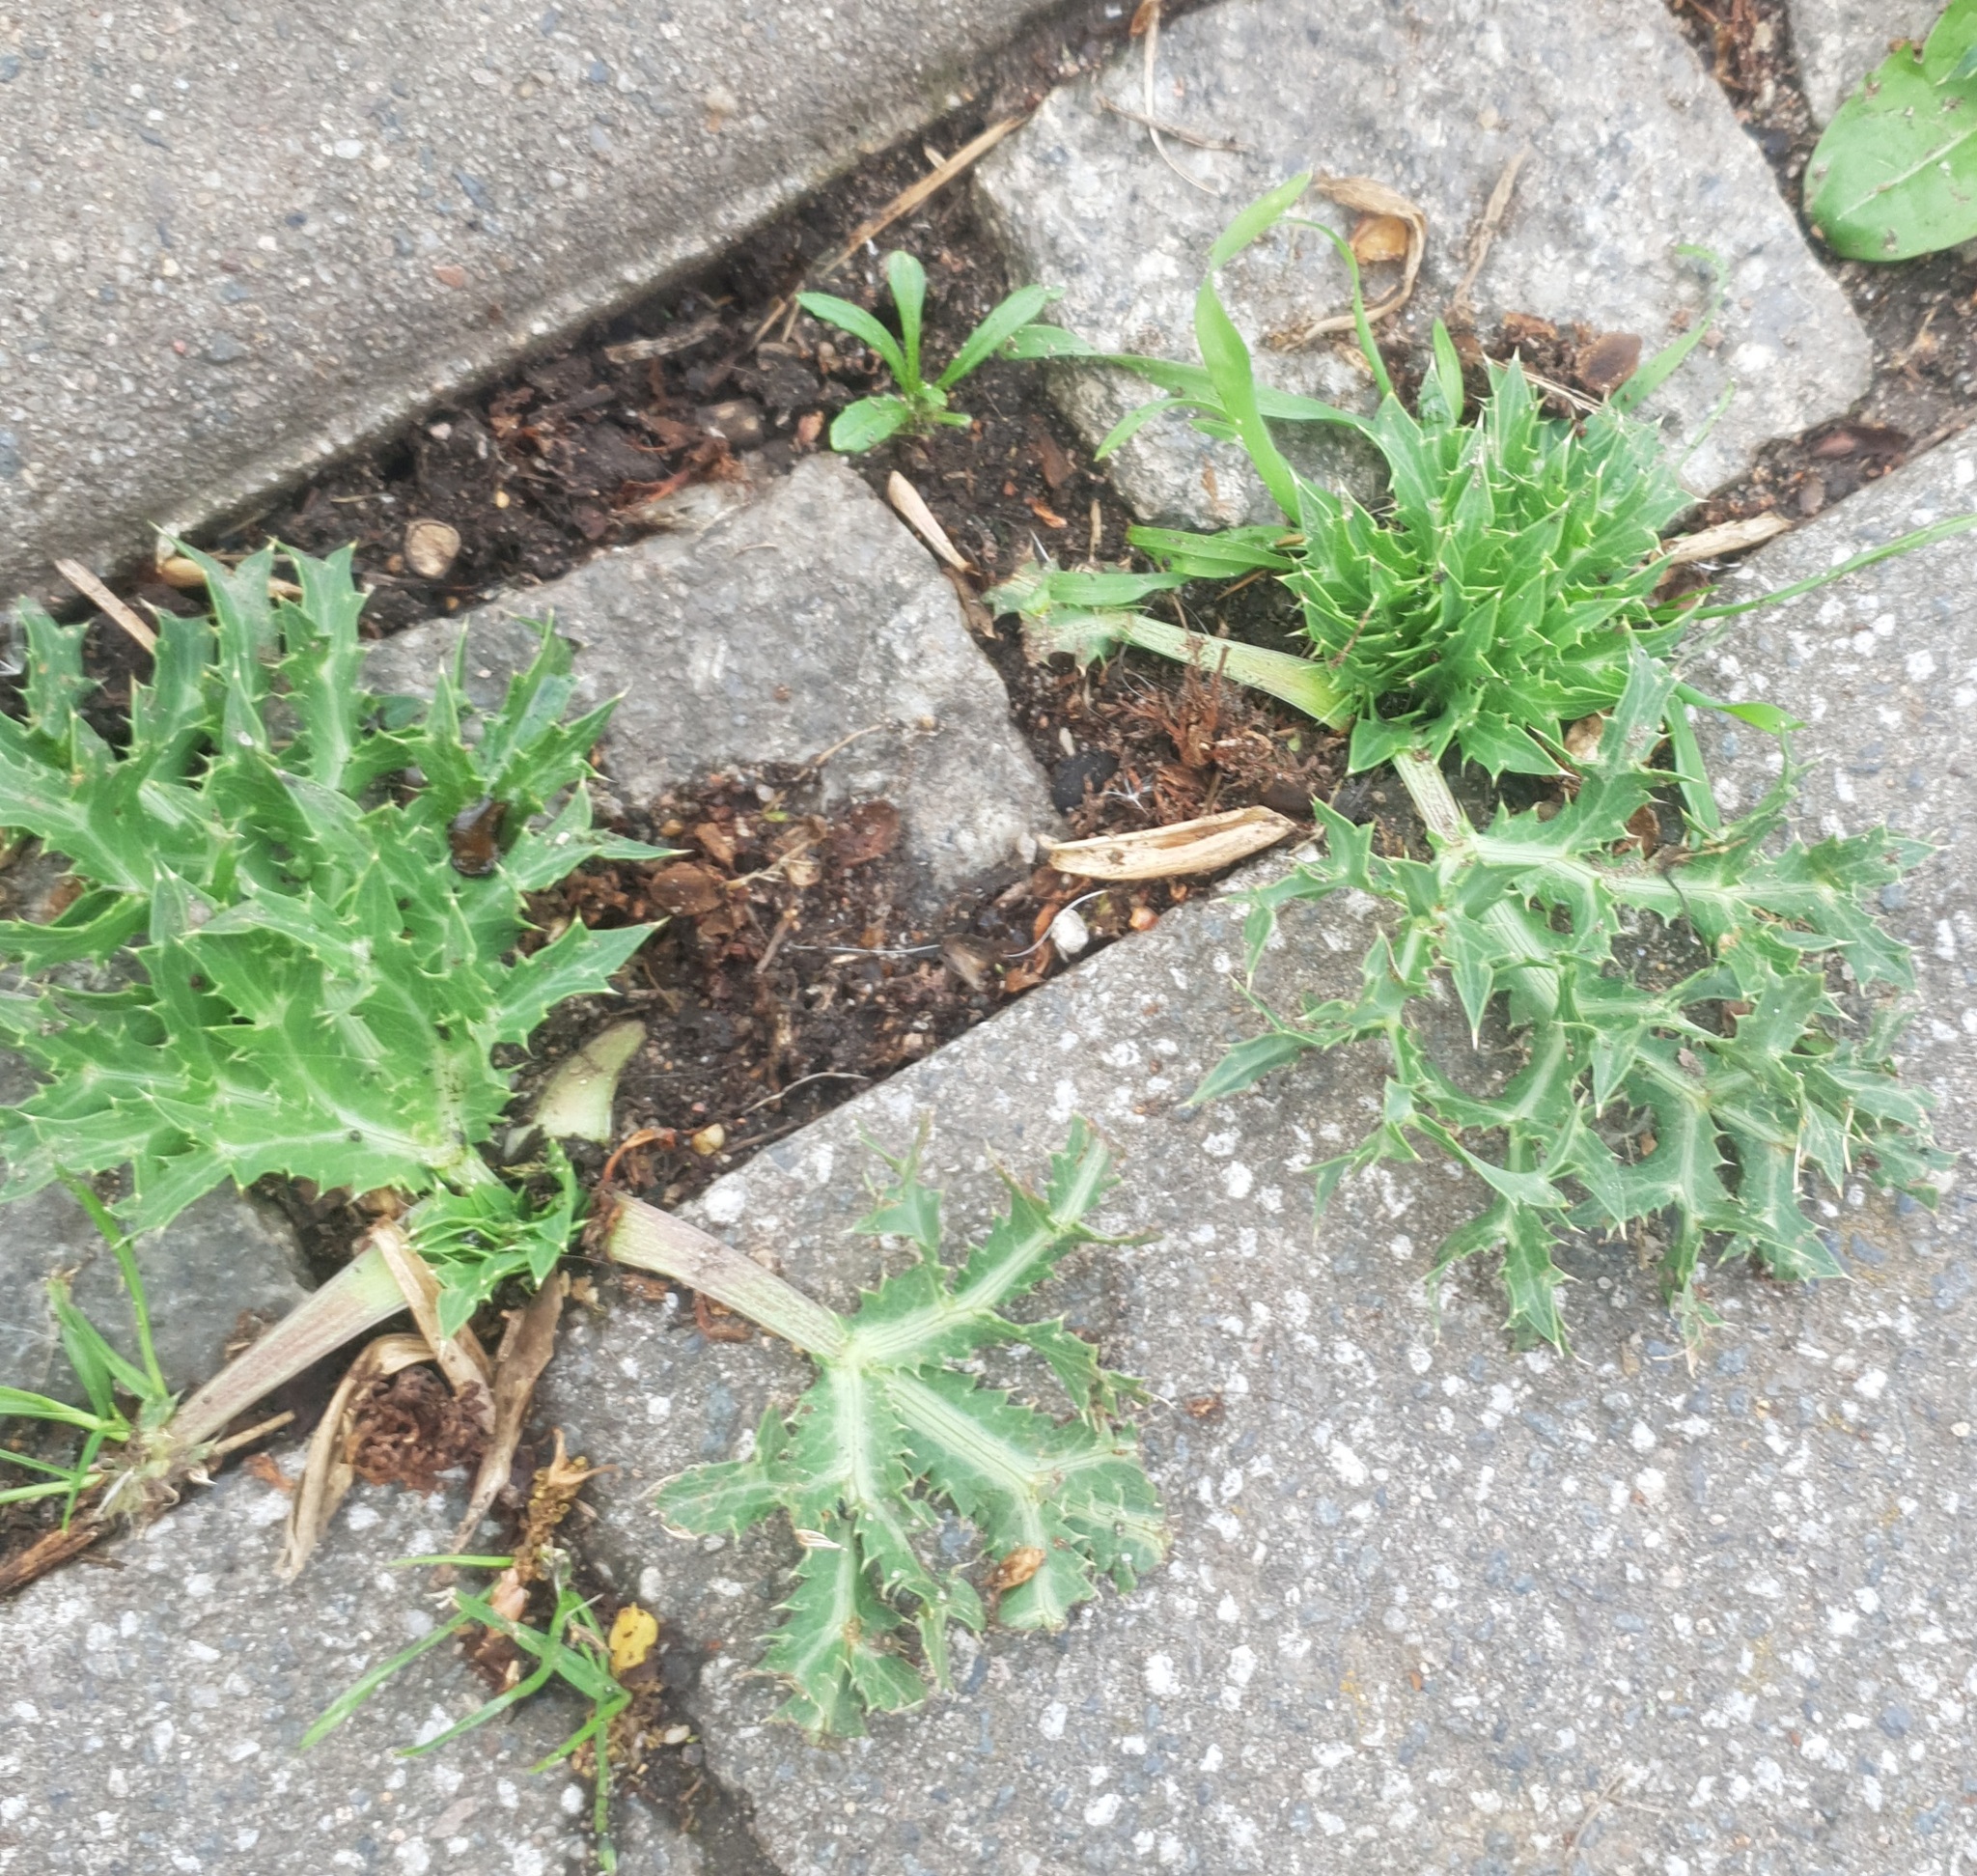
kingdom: Plantae
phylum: Tracheophyta
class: Magnoliopsida
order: Apiales
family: Apiaceae
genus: Eryngium
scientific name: Eryngium campestre
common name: Field eryngo
